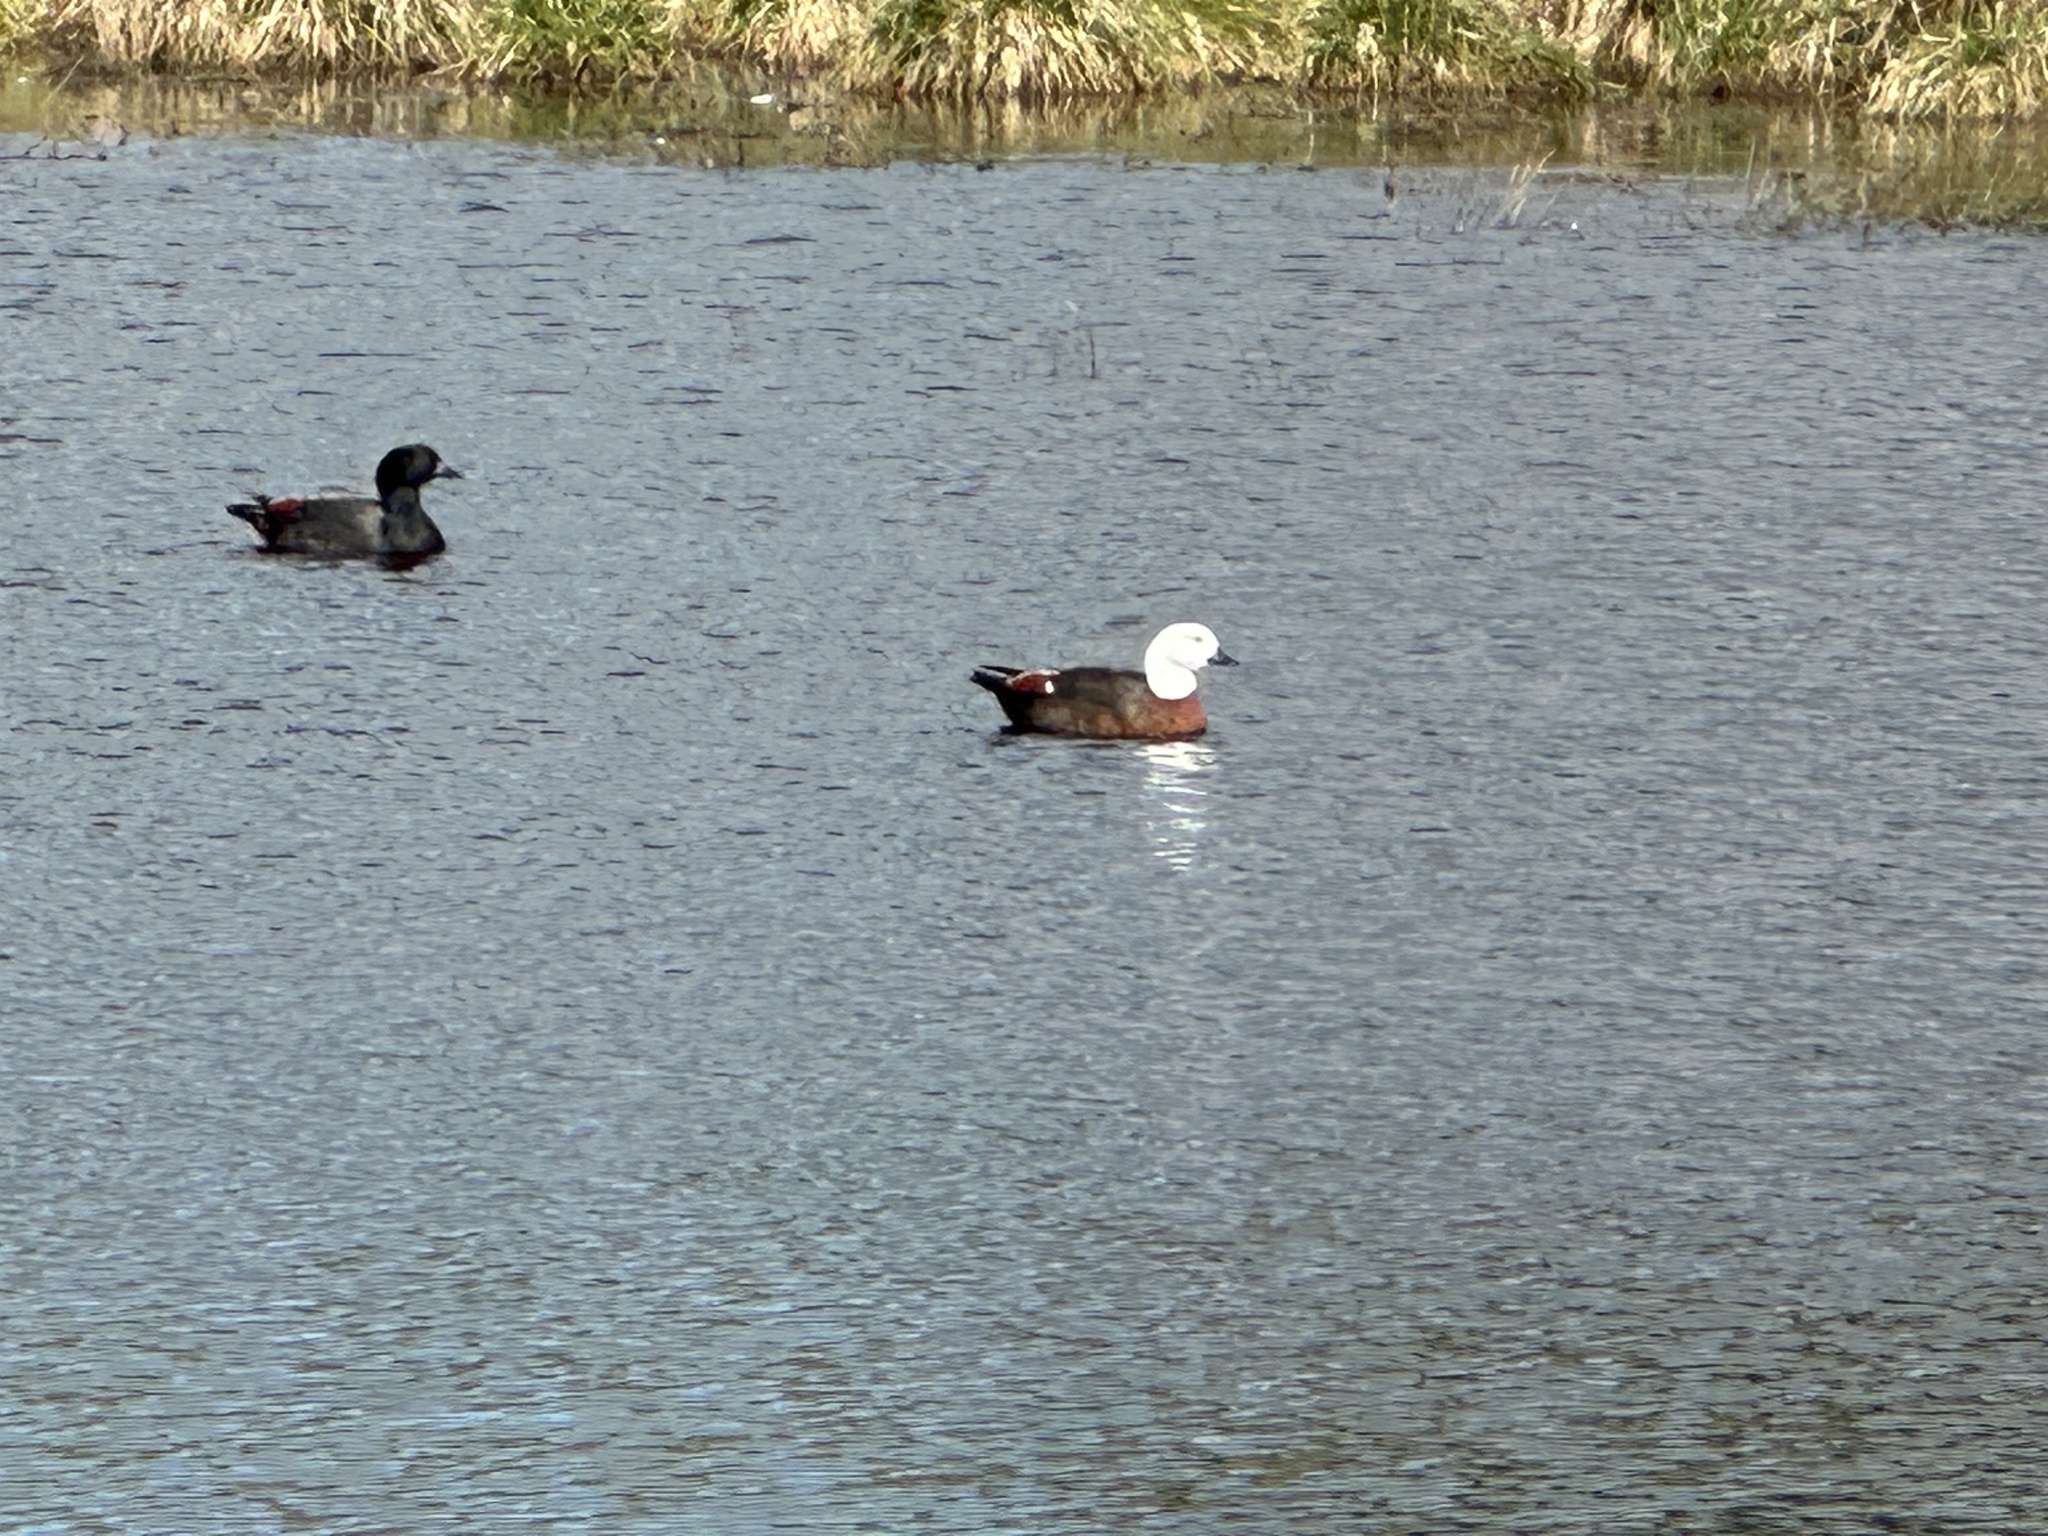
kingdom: Animalia
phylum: Chordata
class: Aves
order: Anseriformes
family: Anatidae
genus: Tadorna
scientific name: Tadorna variegata
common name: Paradise shelduck
